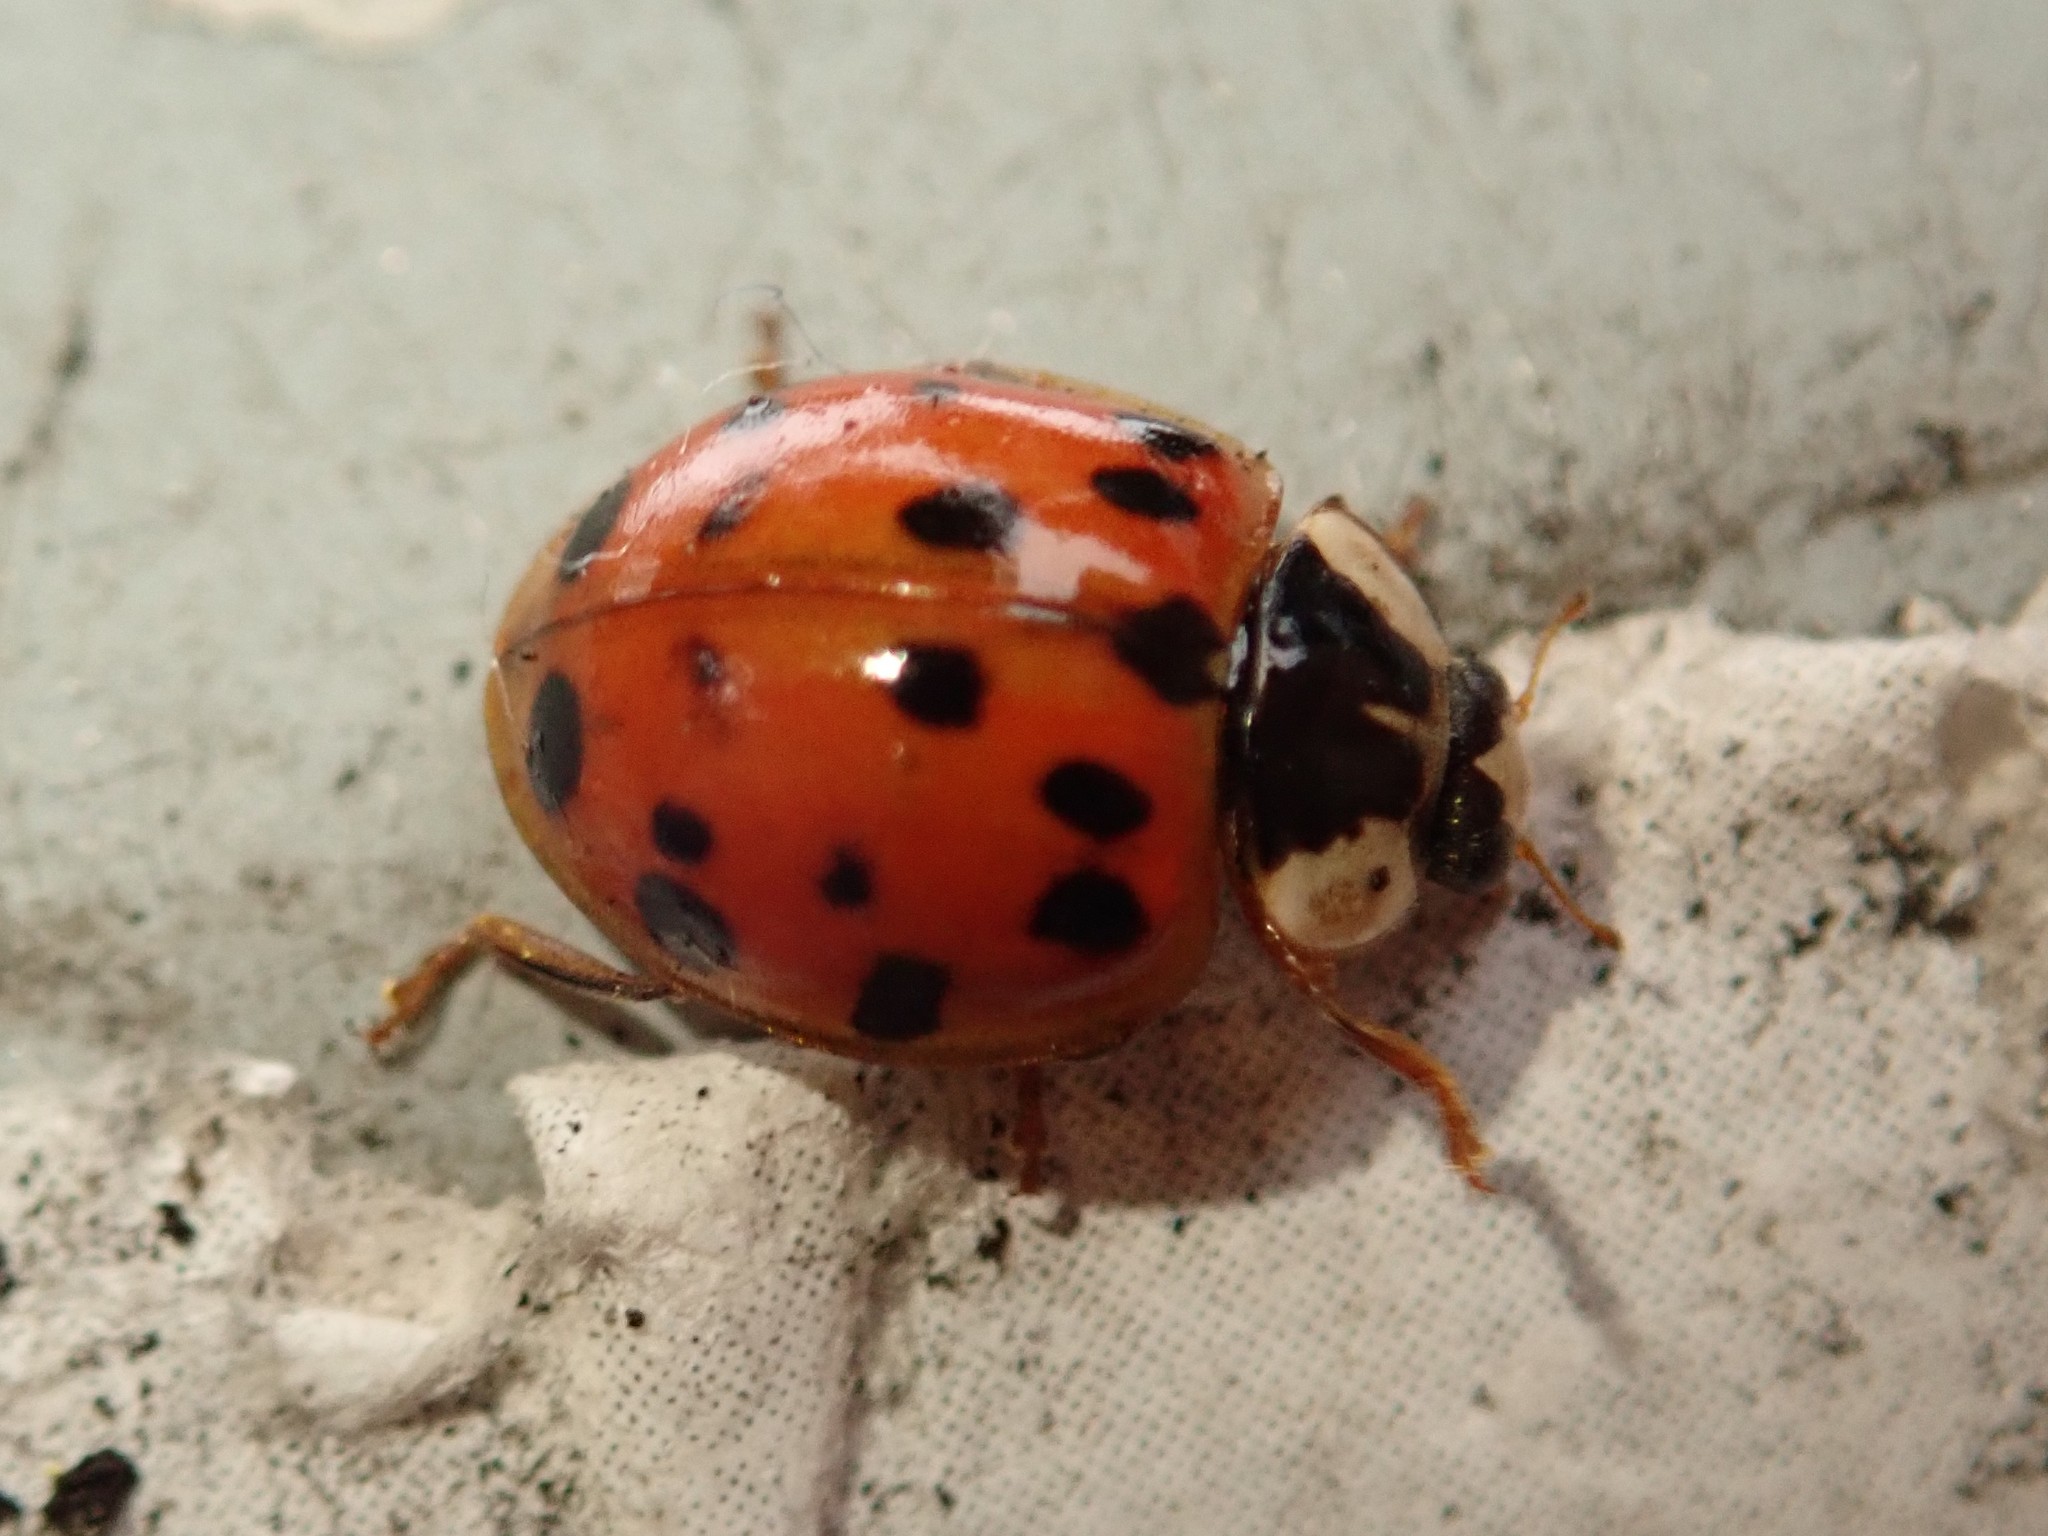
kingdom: Animalia
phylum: Arthropoda
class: Insecta
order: Coleoptera
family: Coccinellidae
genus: Harmonia
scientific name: Harmonia axyridis
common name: Harlequin ladybird
